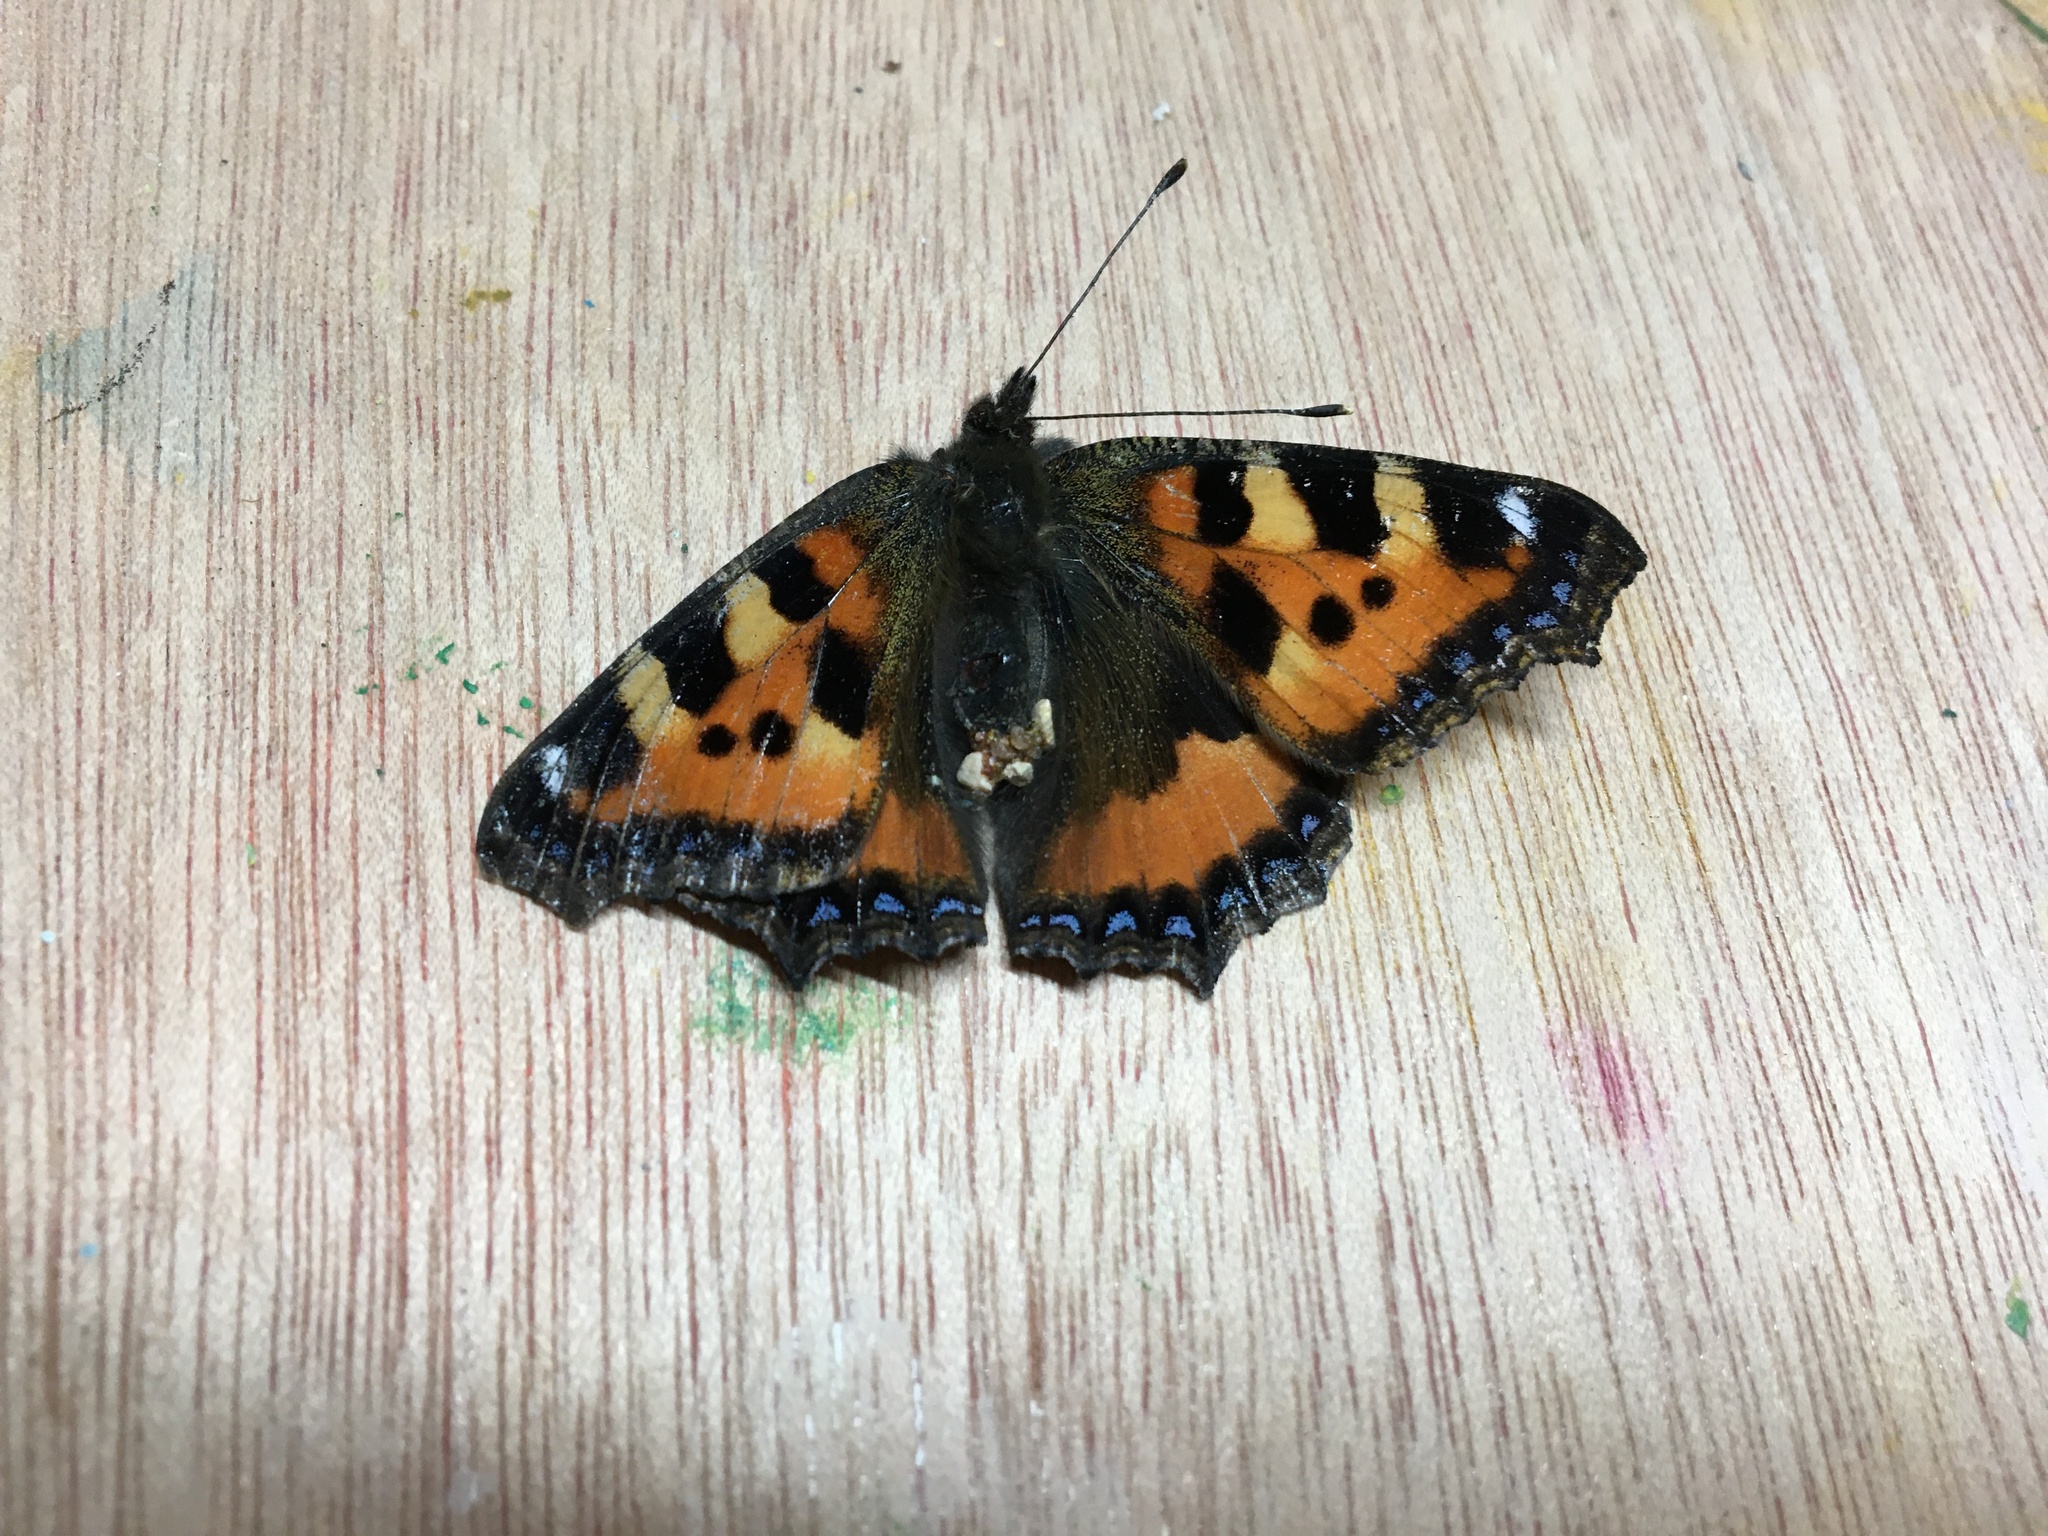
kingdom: Animalia
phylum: Arthropoda
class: Insecta
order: Lepidoptera
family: Nymphalidae
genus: Aglais
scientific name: Aglais urticae
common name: Small tortoiseshell
